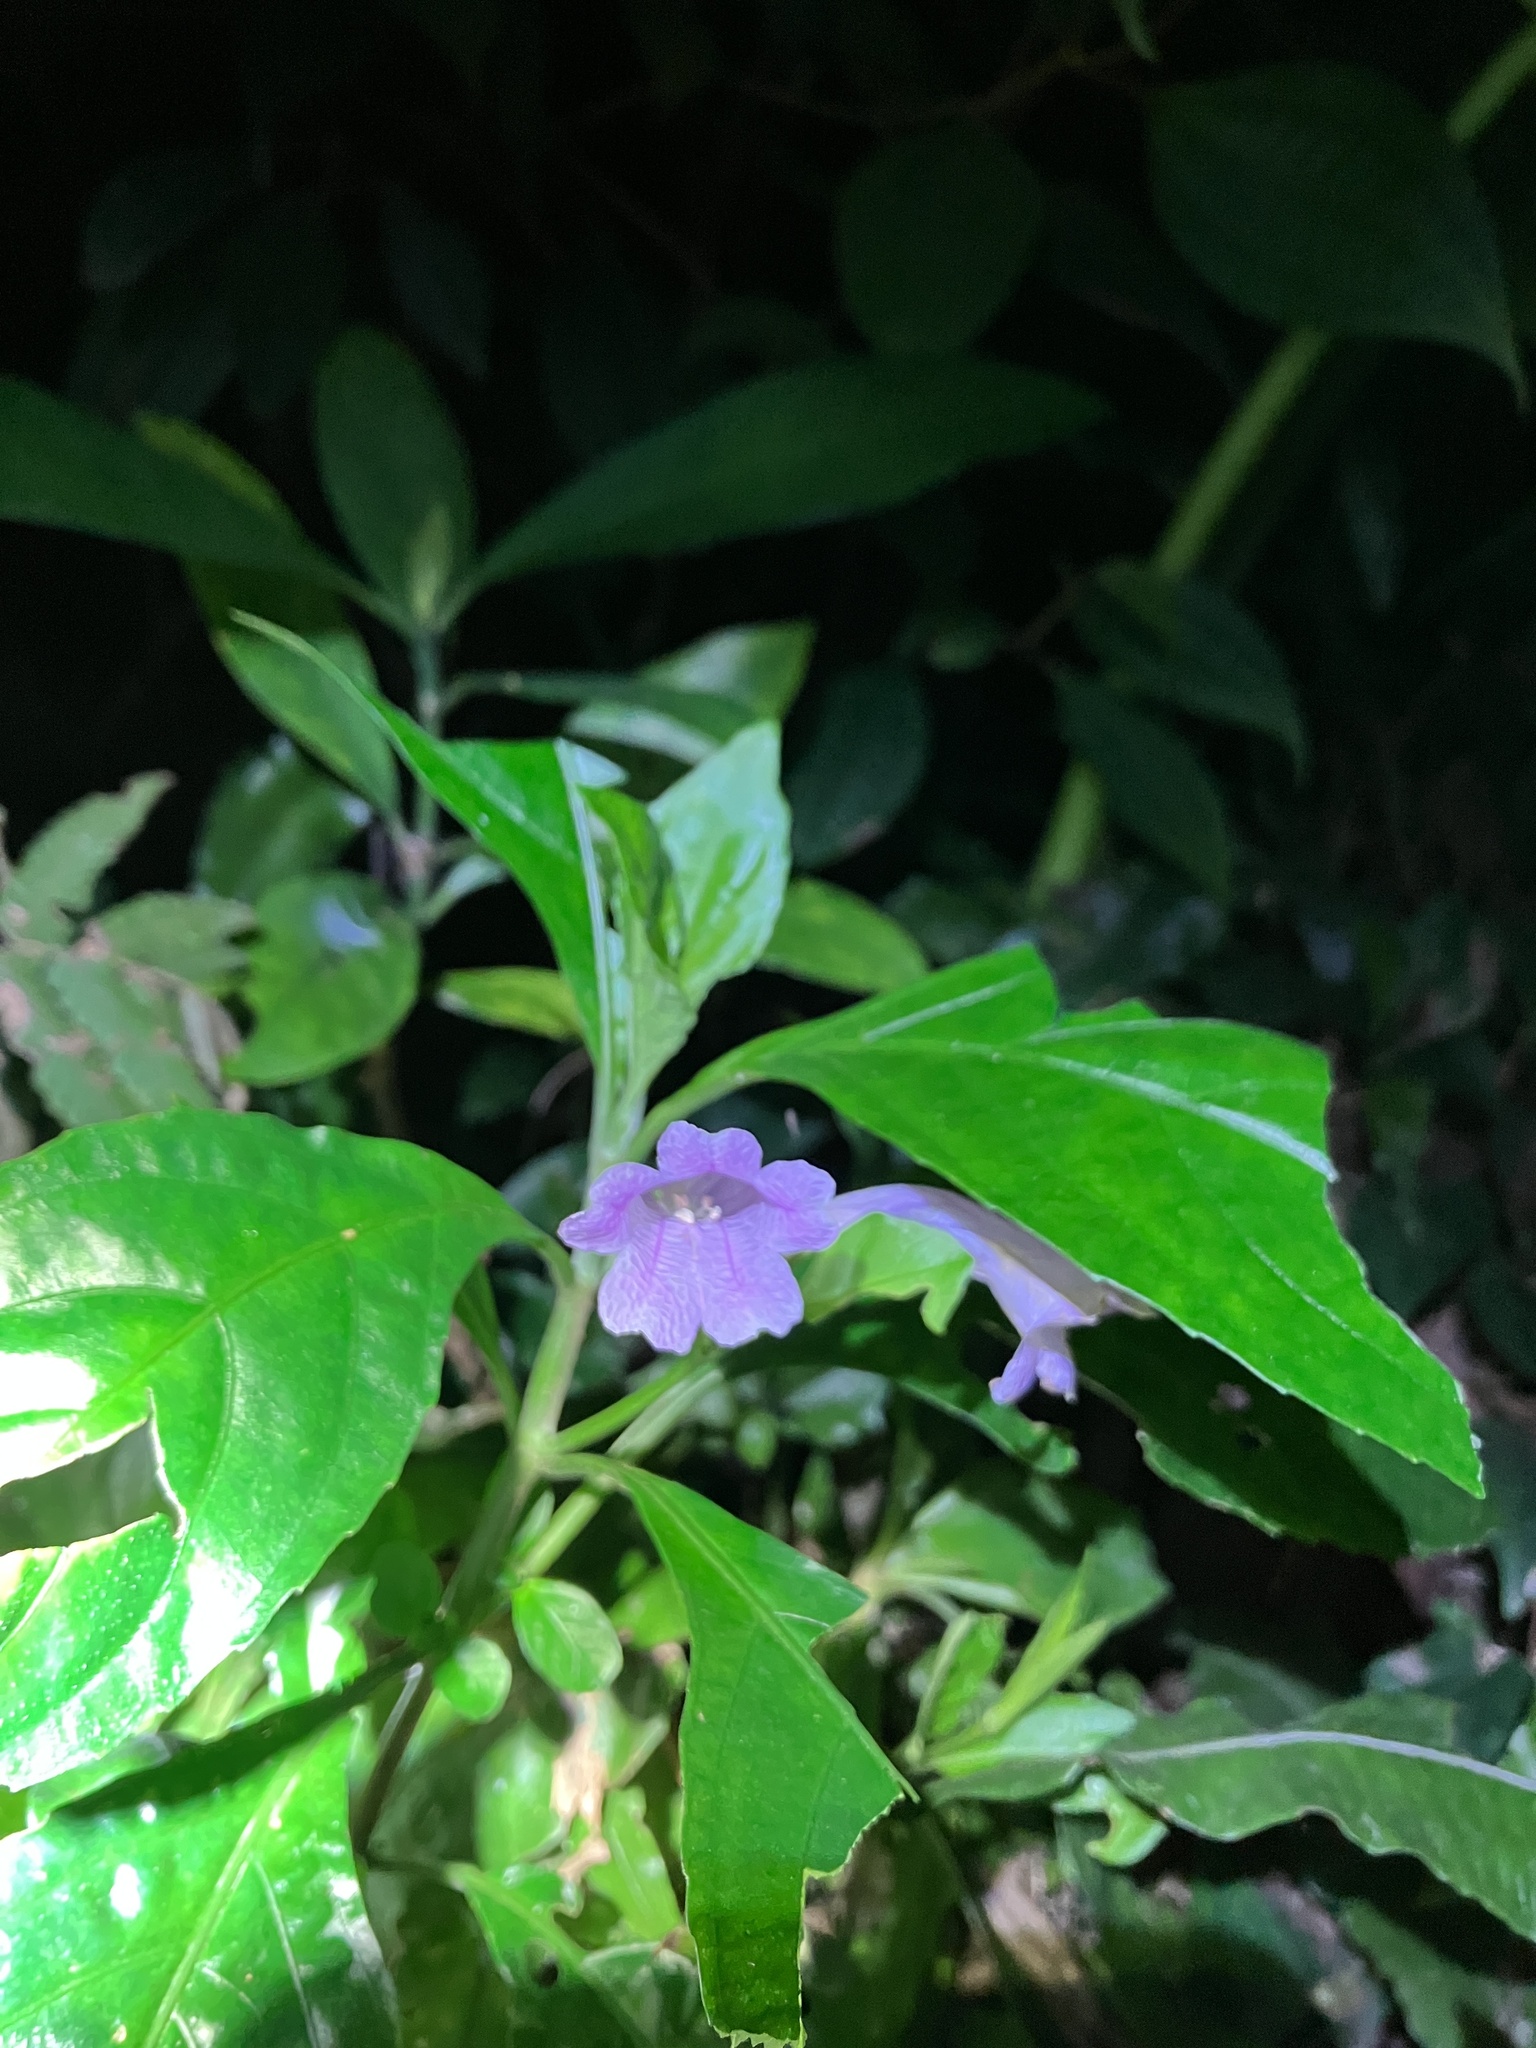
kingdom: Plantae
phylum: Tracheophyta
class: Magnoliopsida
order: Lamiales
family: Acanthaceae
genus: Strobilanthes
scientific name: Strobilanthes cusia
